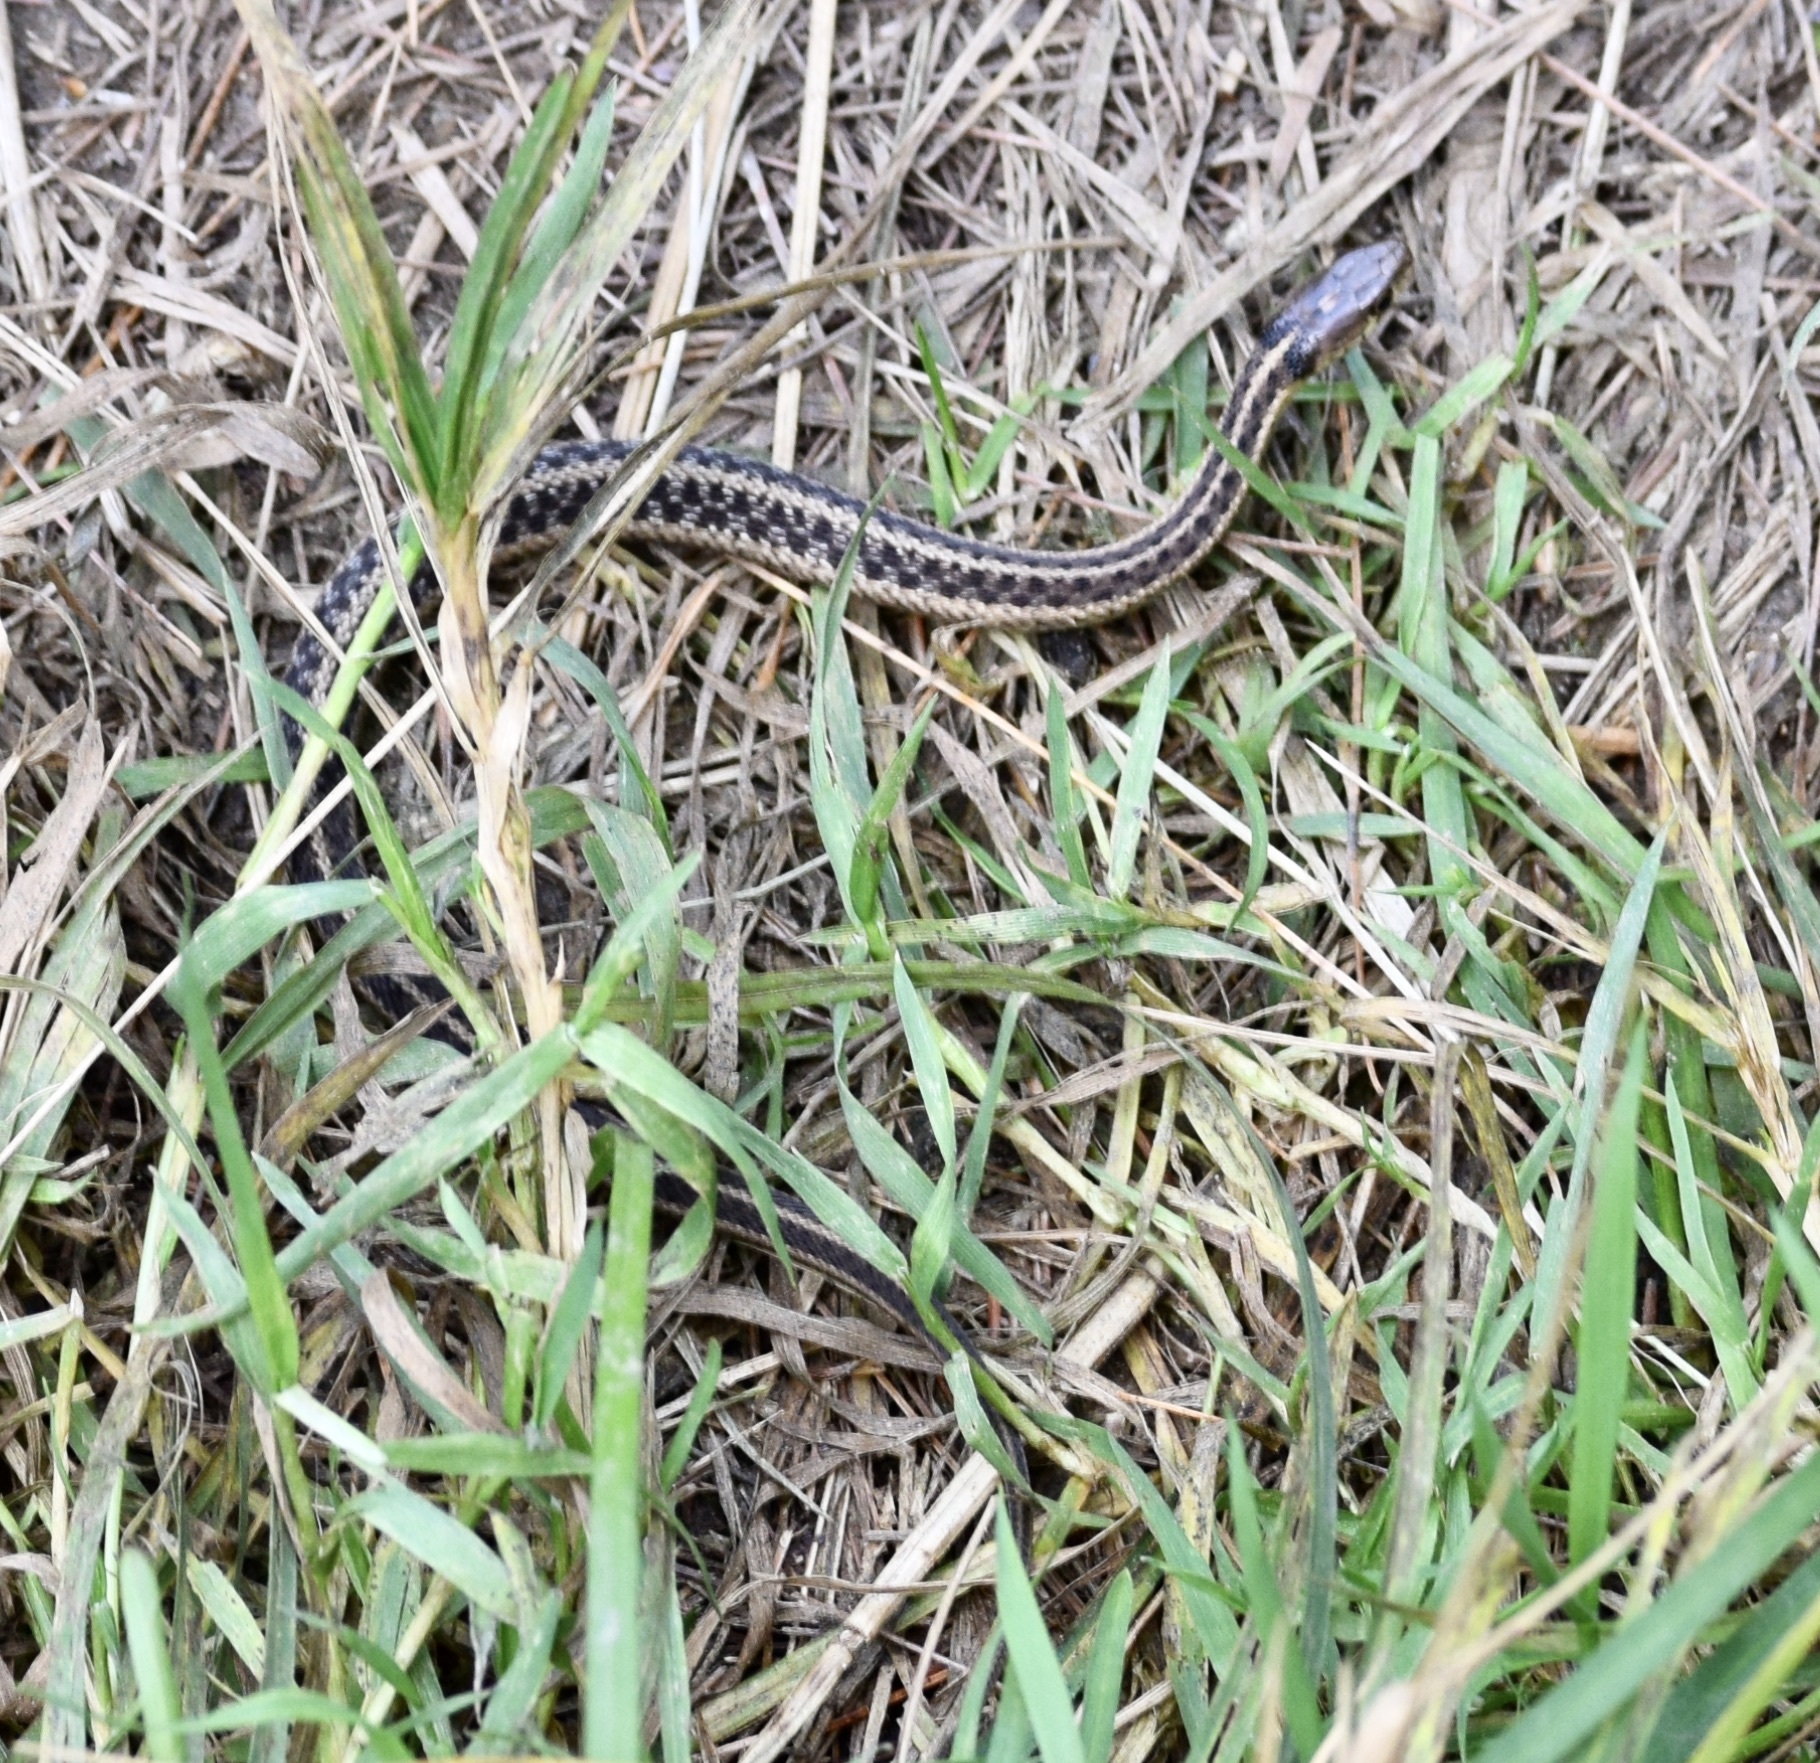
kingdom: Animalia
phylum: Chordata
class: Squamata
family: Colubridae
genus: Thamnophis
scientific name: Thamnophis sirtalis
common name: Common garter snake
